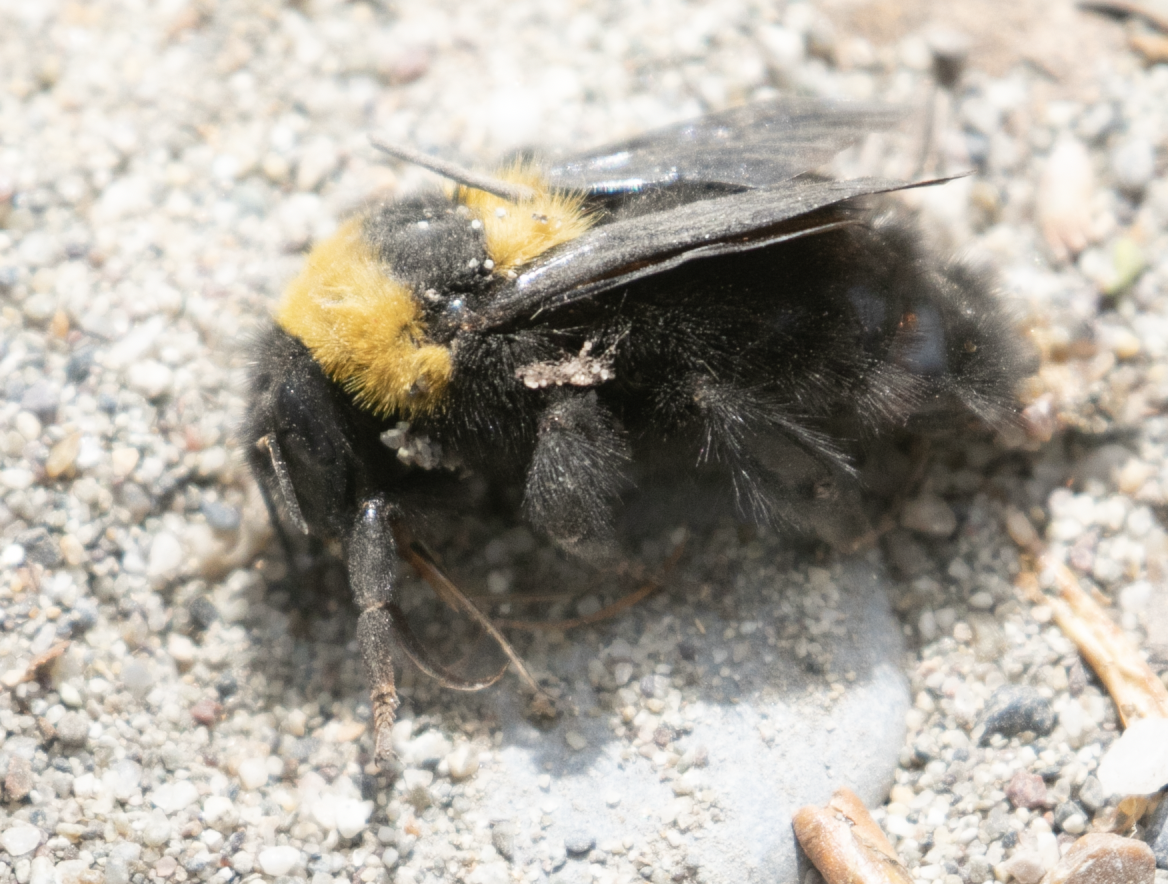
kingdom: Animalia
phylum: Arthropoda
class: Insecta
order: Hymenoptera
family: Apidae
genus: Bombus
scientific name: Bombus argillaceus
